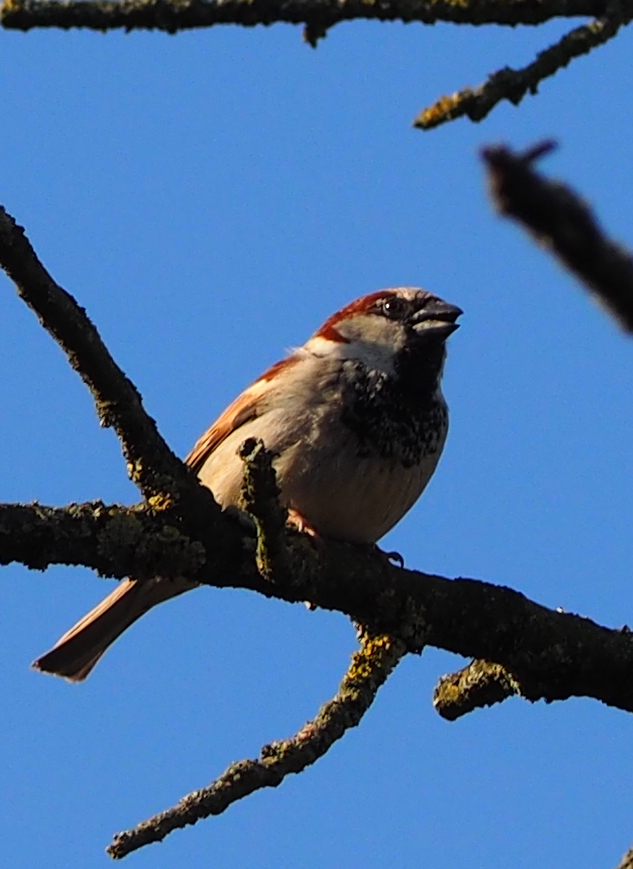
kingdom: Animalia
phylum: Chordata
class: Aves
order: Passeriformes
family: Passeridae
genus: Passer
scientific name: Passer domesticus
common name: House sparrow
